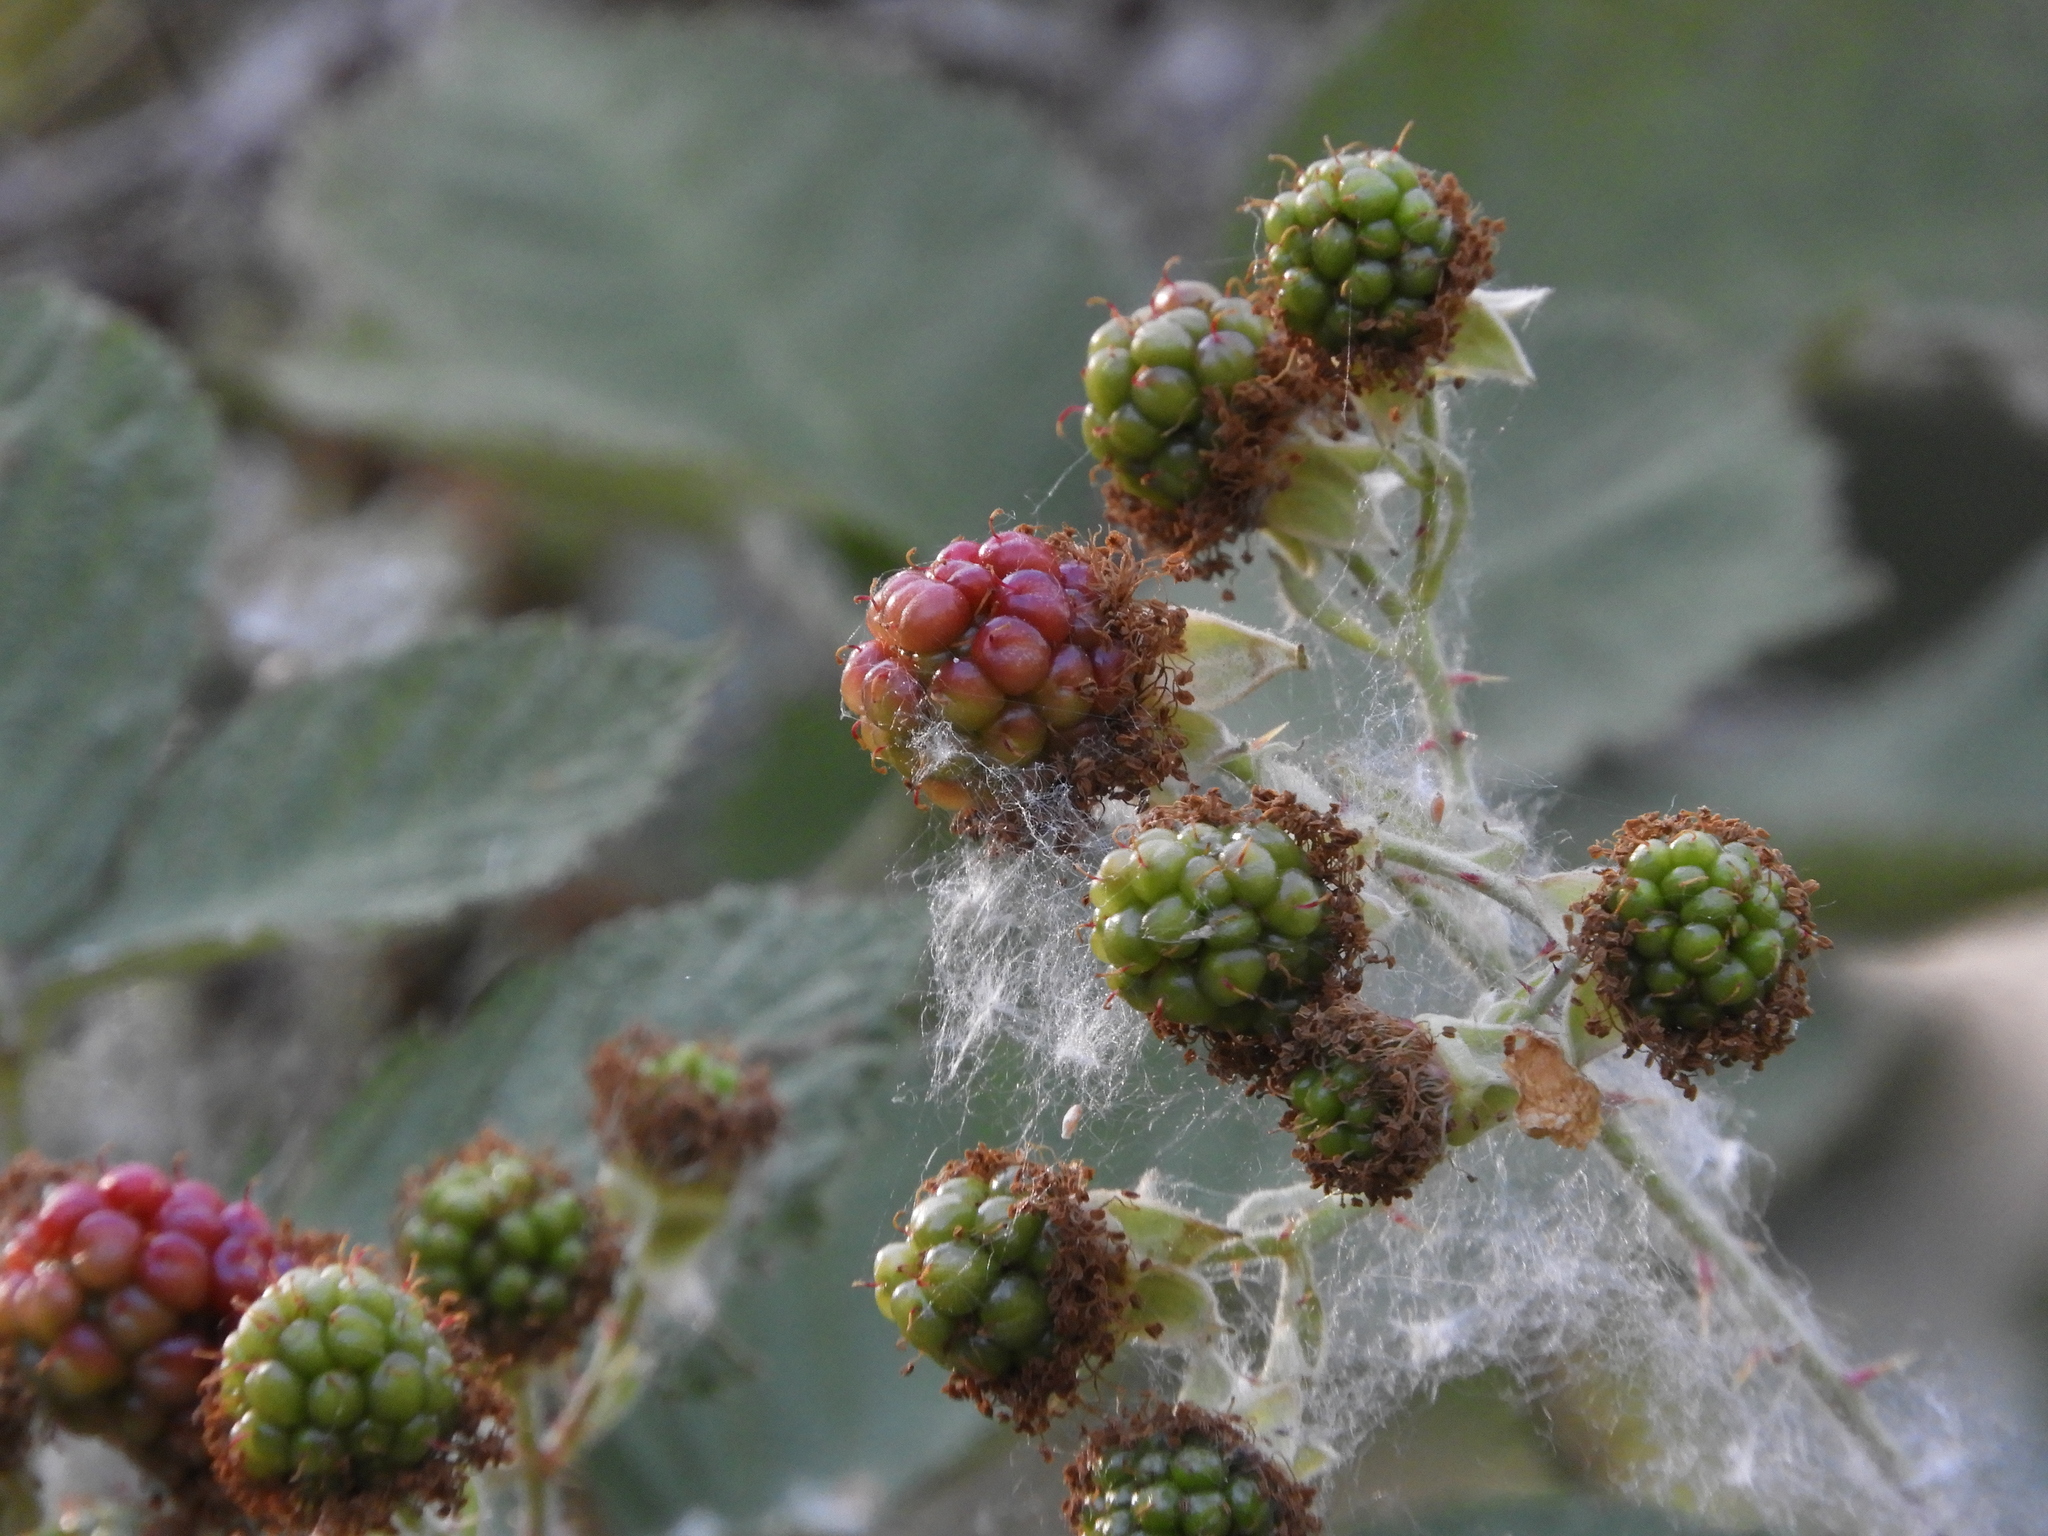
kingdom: Plantae
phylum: Tracheophyta
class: Magnoliopsida
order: Rosales
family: Rosaceae
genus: Rubus
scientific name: Rubus armeniacus
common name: Himalayan blackberry
